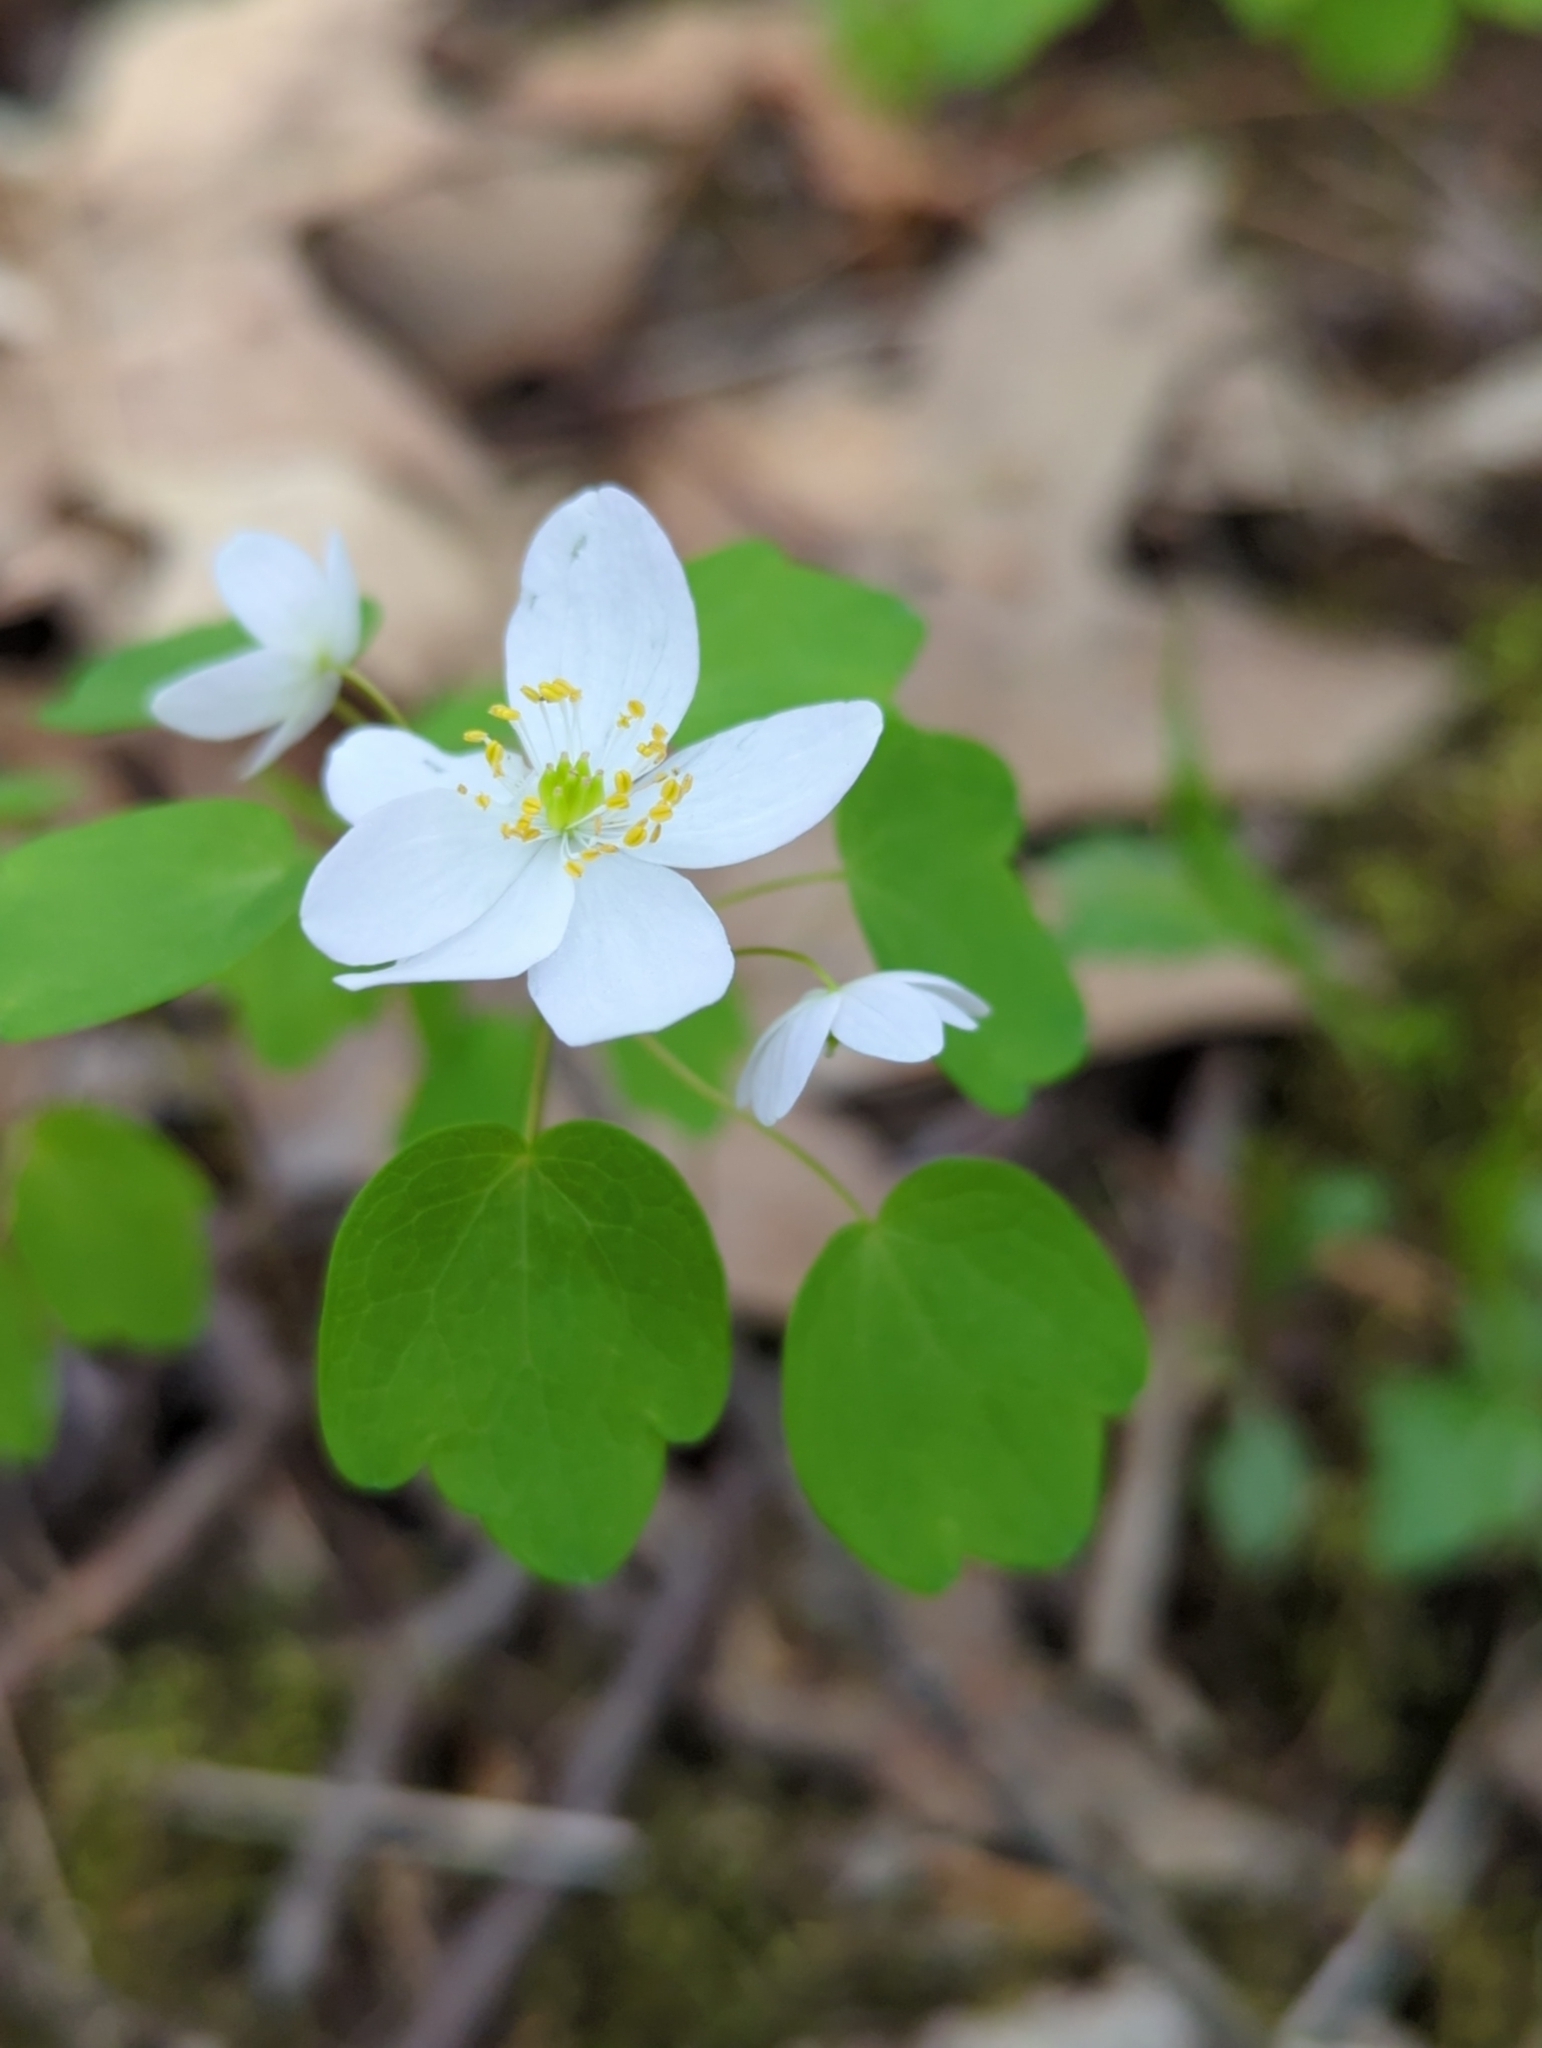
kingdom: Plantae
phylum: Tracheophyta
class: Magnoliopsida
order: Ranunculales
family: Ranunculaceae
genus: Thalictrum
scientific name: Thalictrum thalictroides
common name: Rue-anemone
